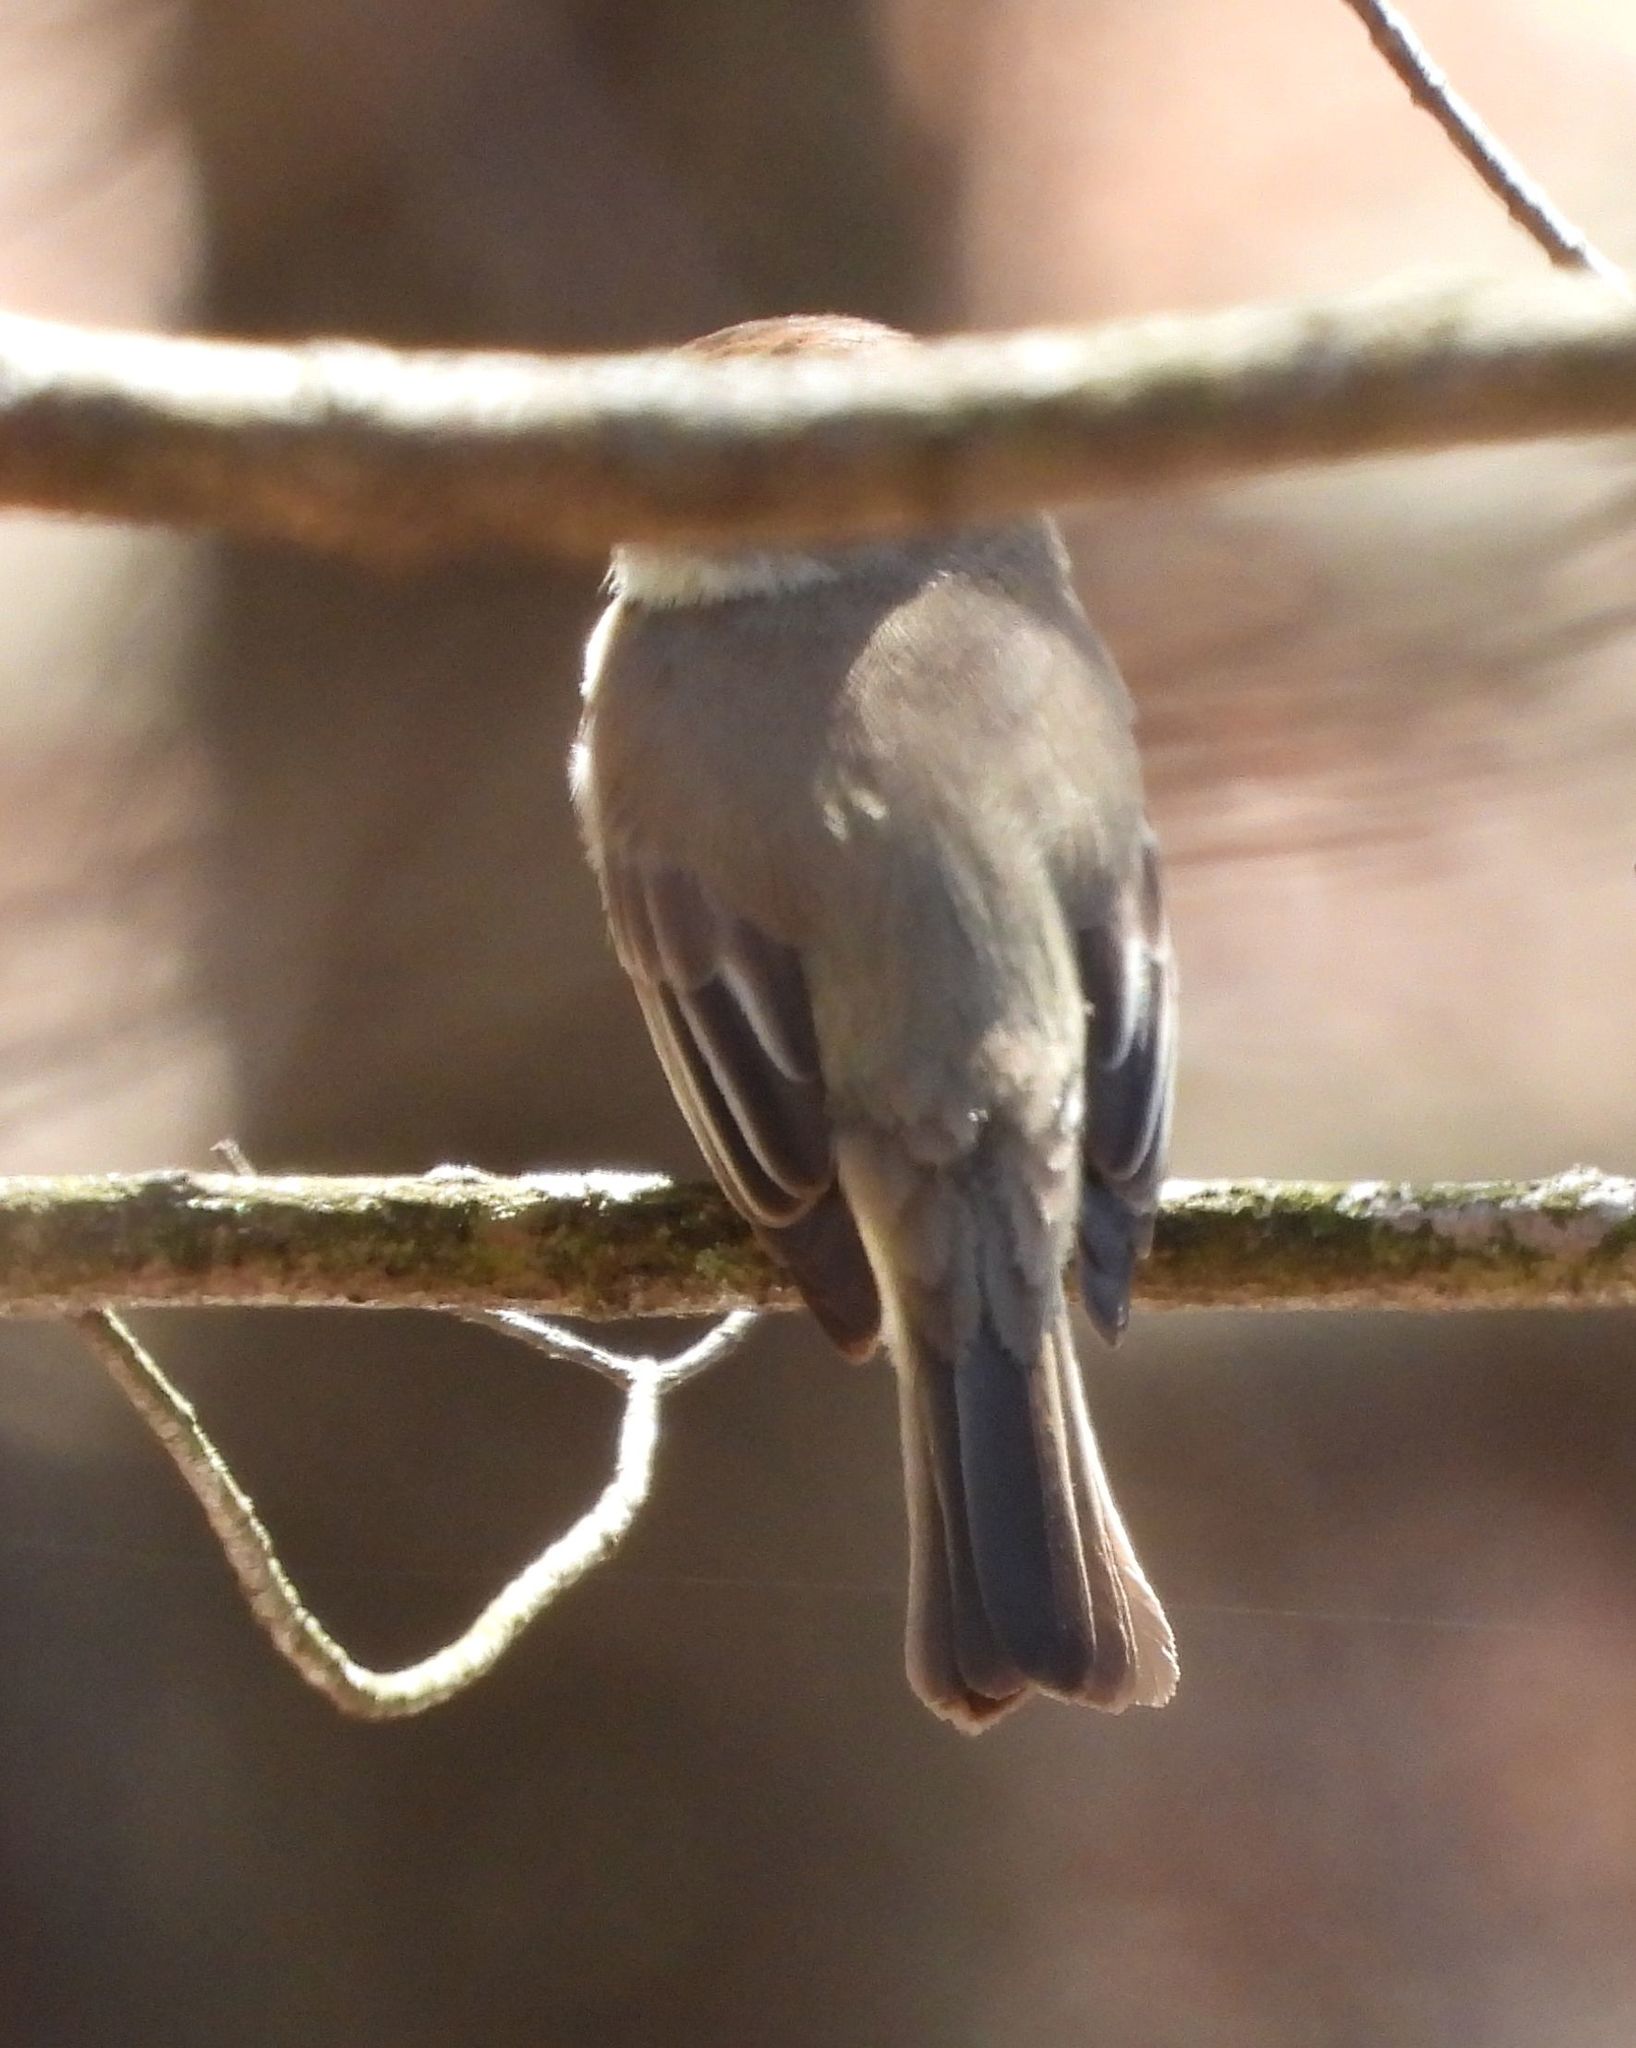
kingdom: Animalia
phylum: Chordata
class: Aves
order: Passeriformes
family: Tyrannidae
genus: Sayornis
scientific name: Sayornis phoebe
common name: Eastern phoebe
